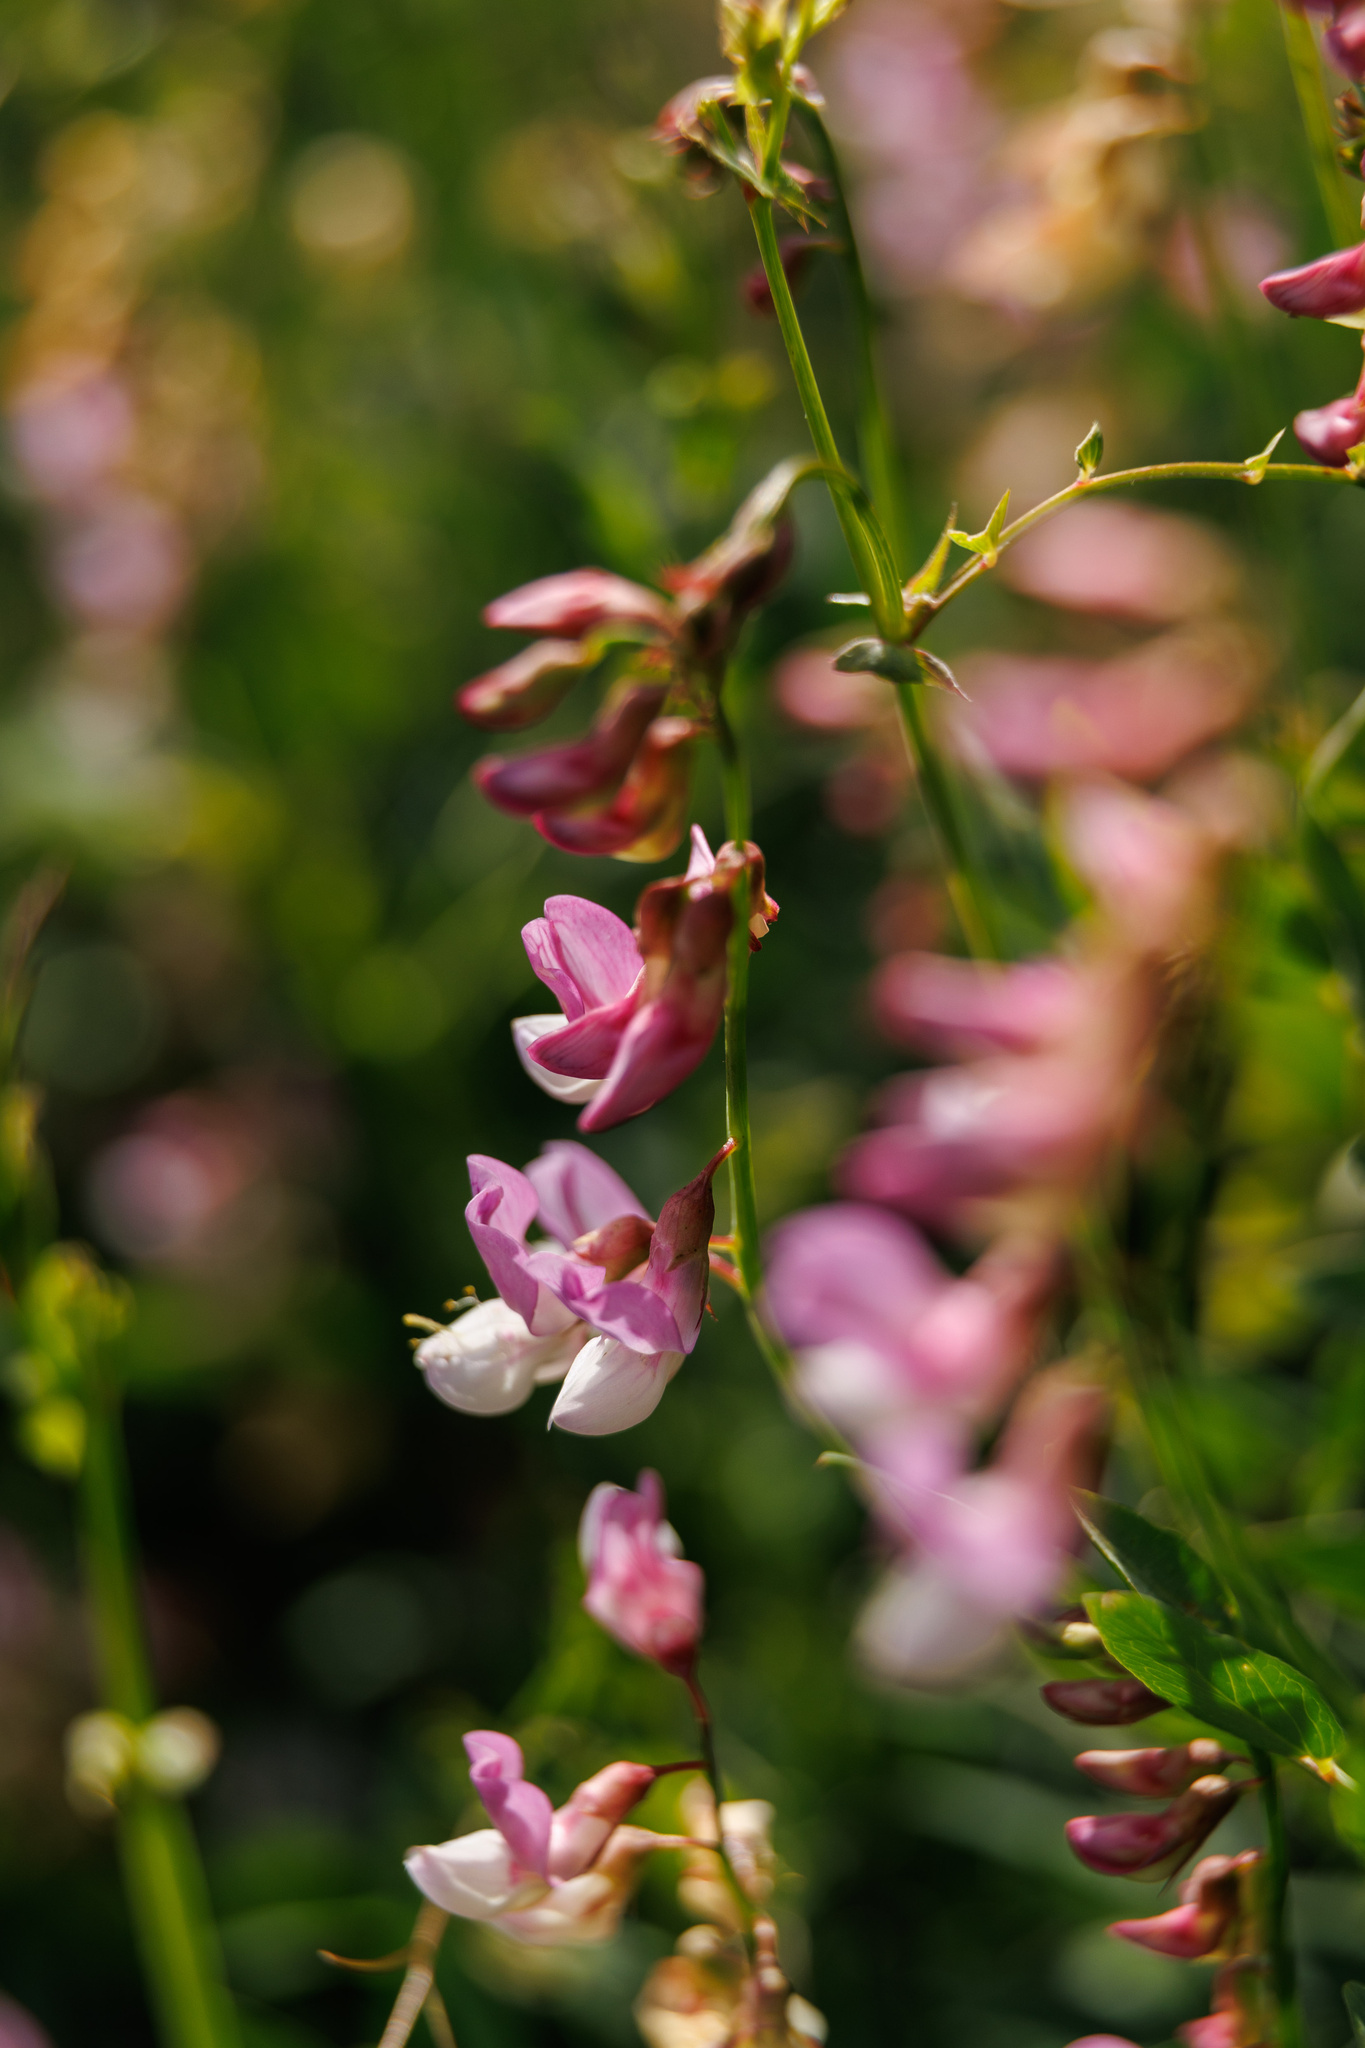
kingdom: Plantae
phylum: Tracheophyta
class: Magnoliopsida
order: Fabales
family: Fabaceae
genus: Lathyrus
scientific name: Lathyrus vestitus
